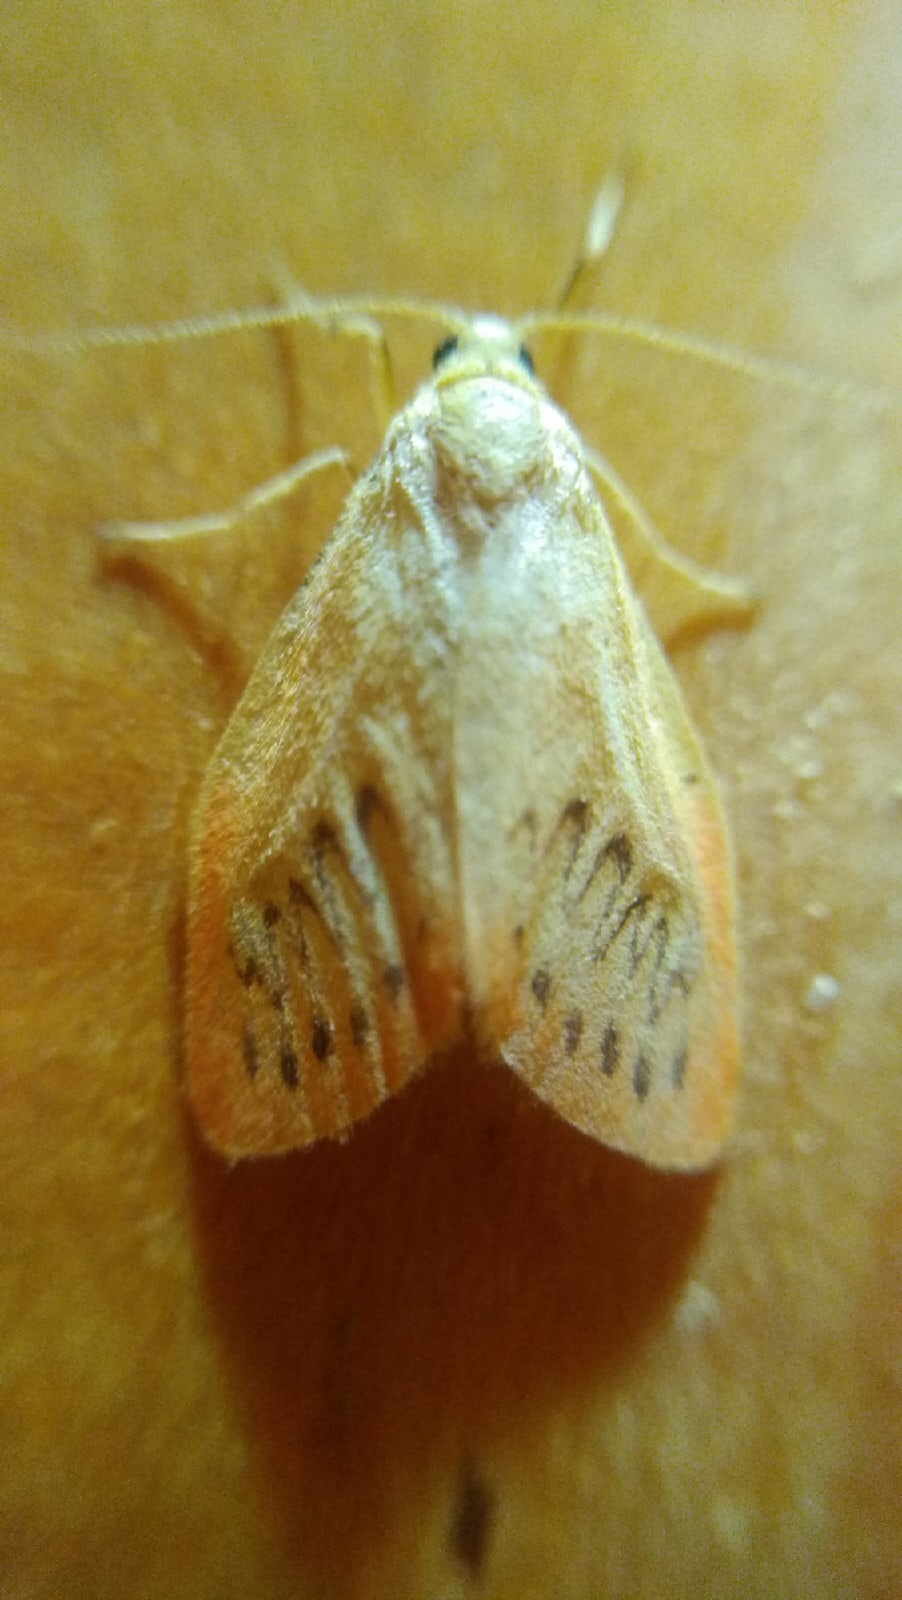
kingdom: Animalia
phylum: Arthropoda
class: Insecta
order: Lepidoptera
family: Erebidae
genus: Miltochrista
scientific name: Miltochrista miniata
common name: Rosy footman
